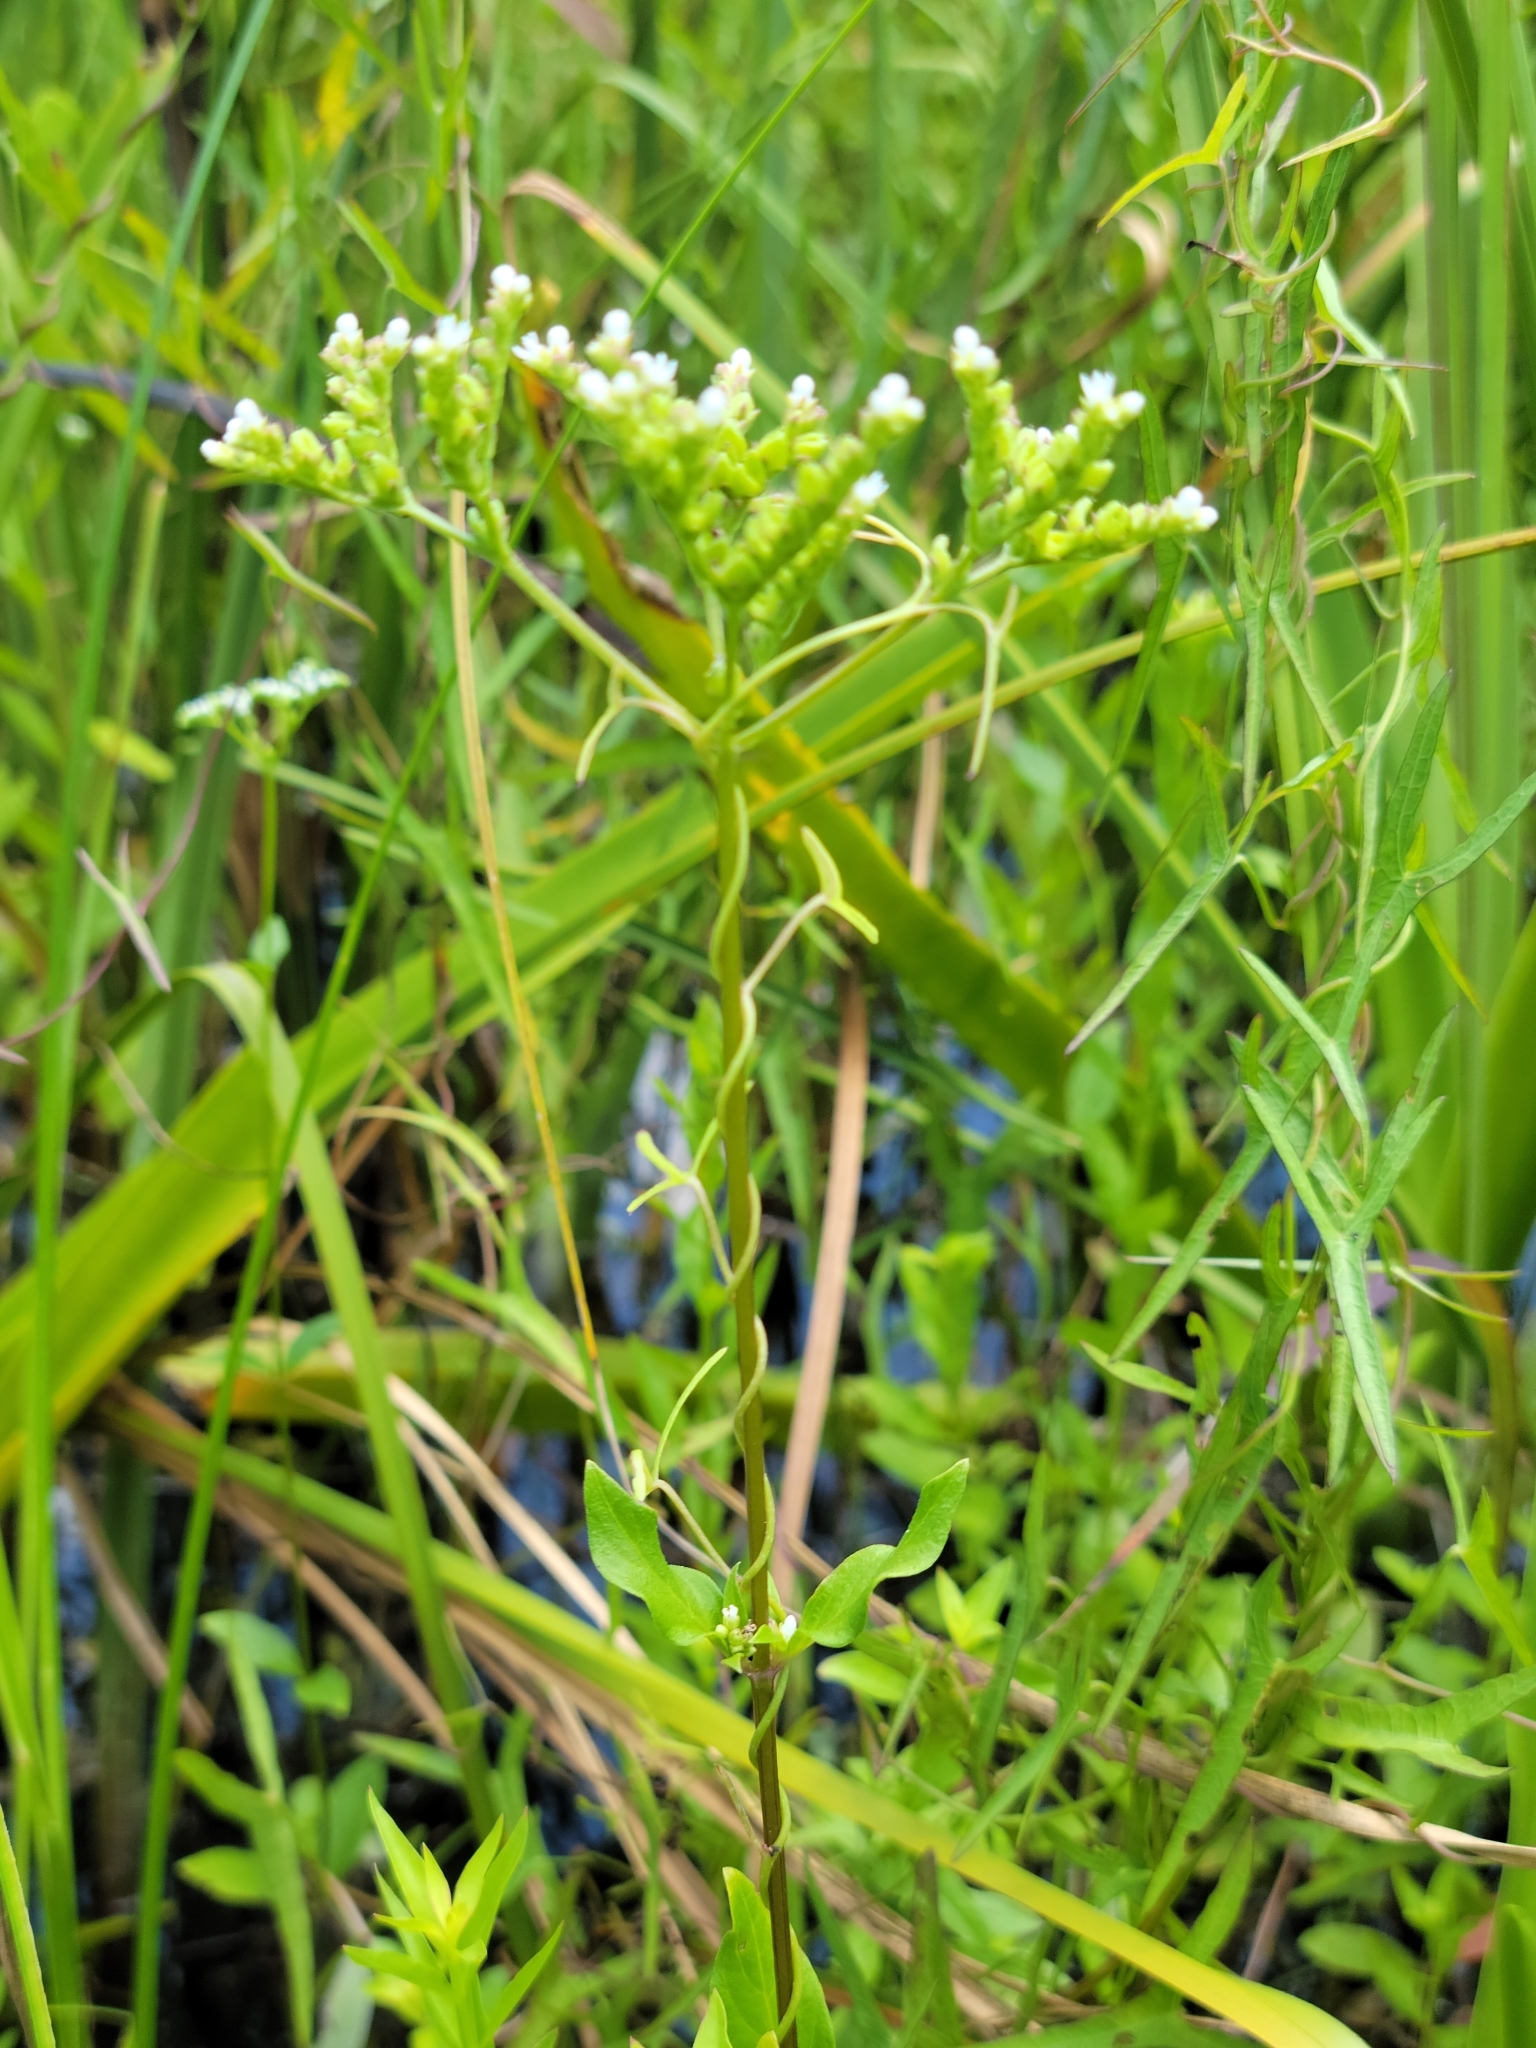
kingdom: Plantae
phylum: Tracheophyta
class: Magnoliopsida
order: Gentianales
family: Loganiaceae
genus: Mitreola
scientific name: Mitreola petiolata
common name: Lax hornpod
